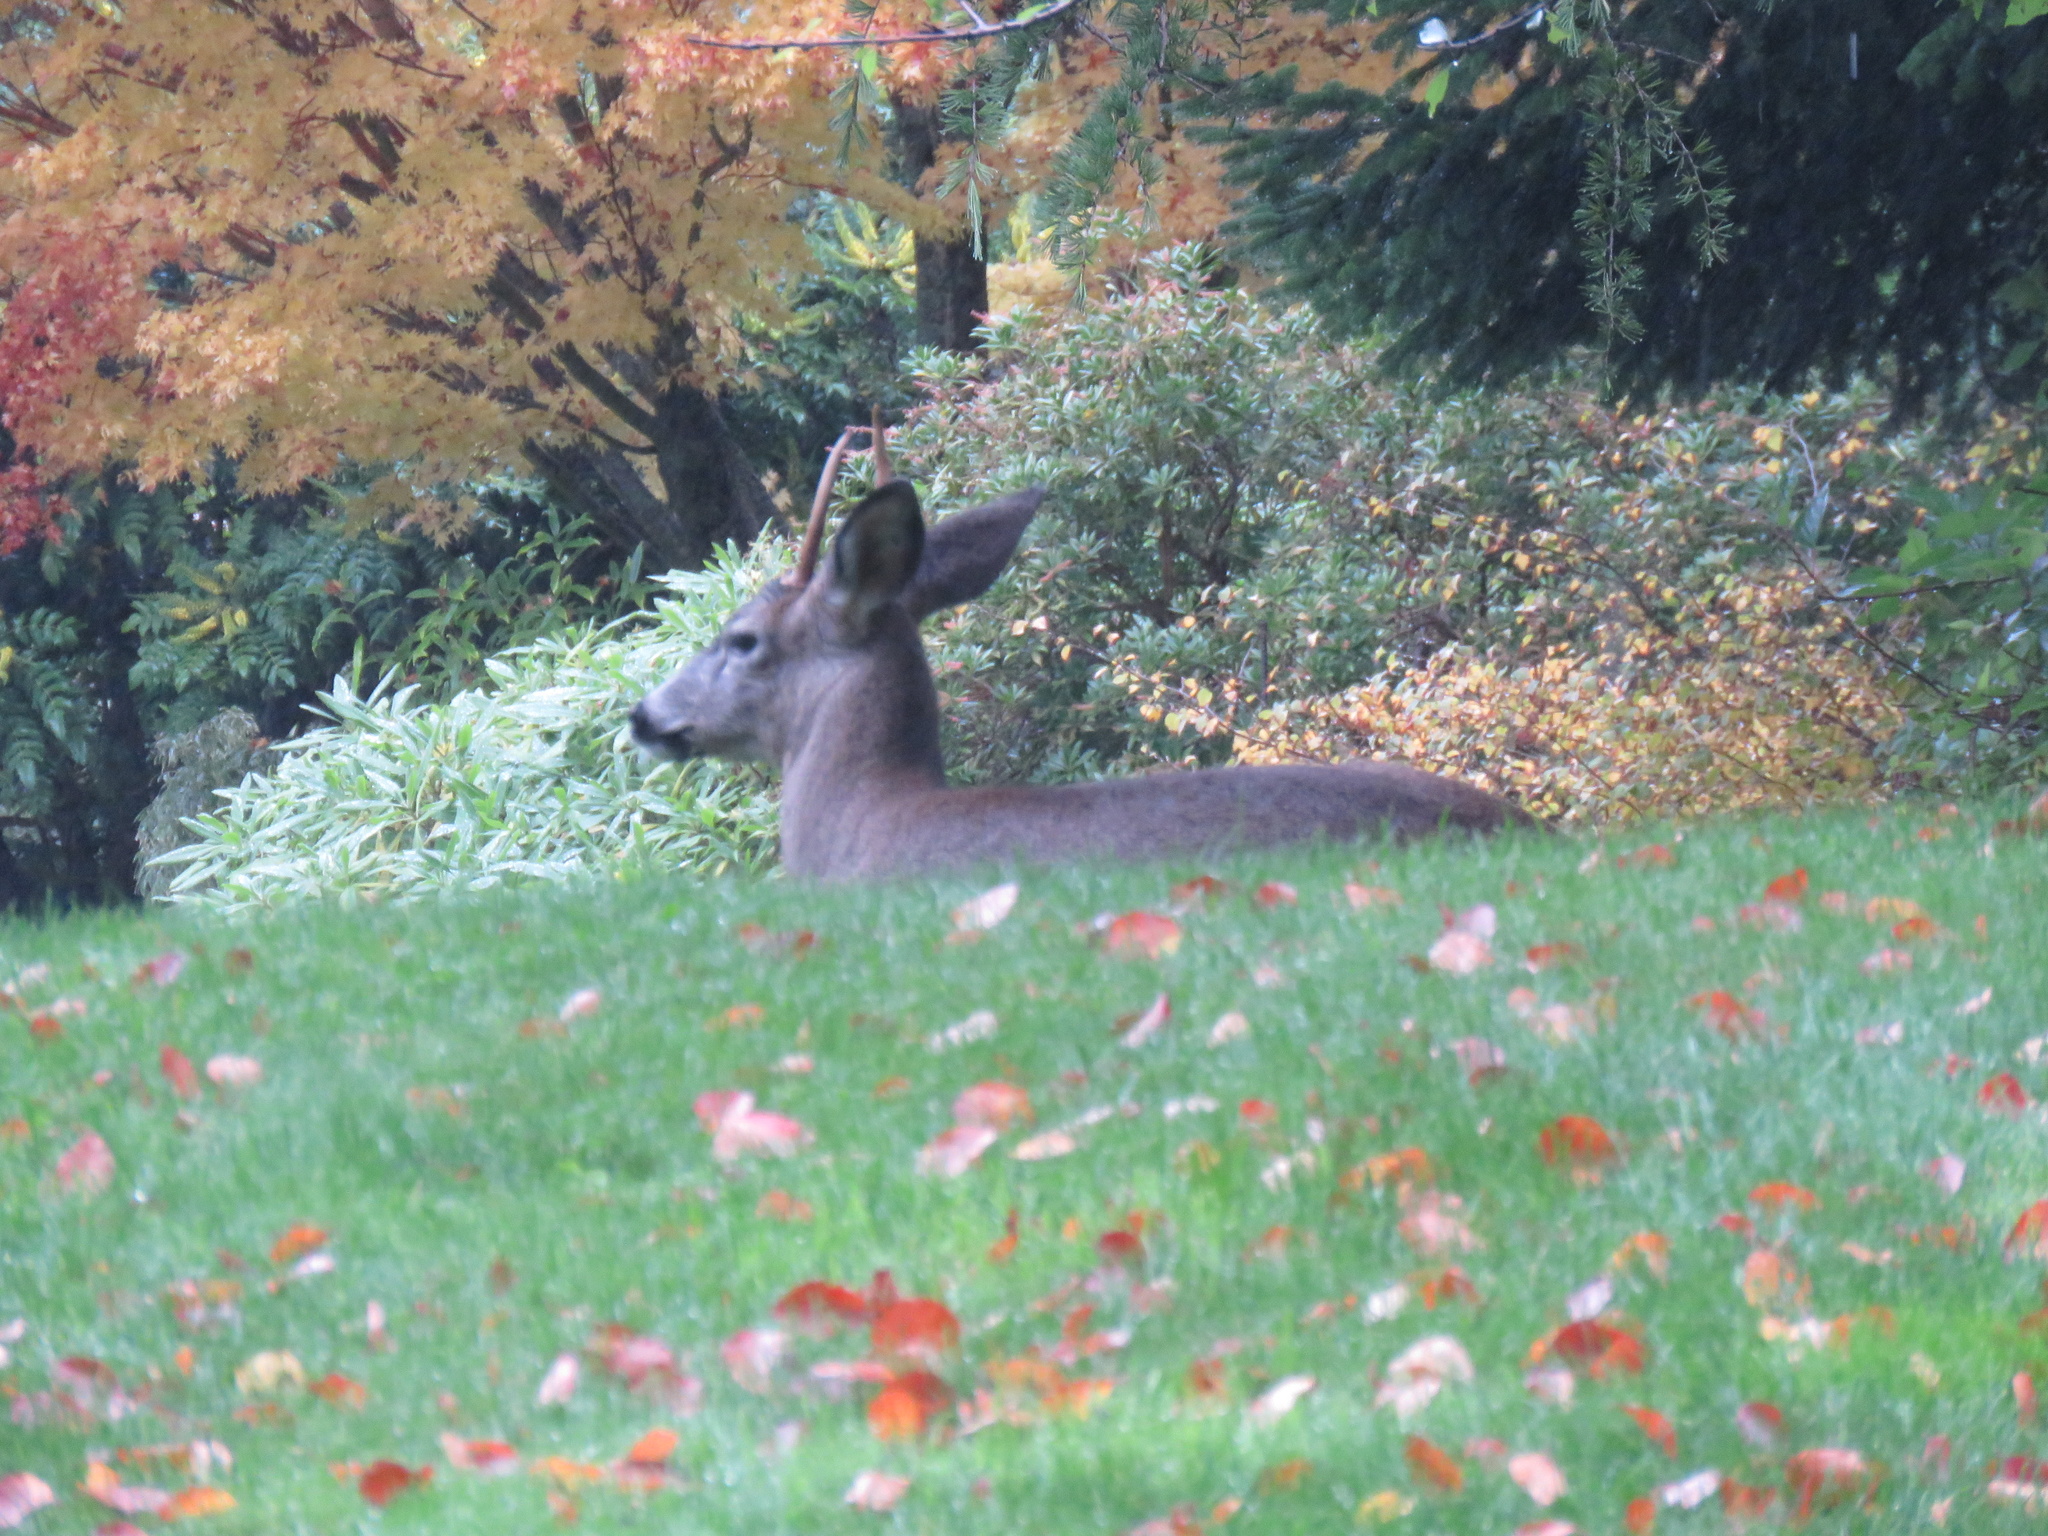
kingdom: Animalia
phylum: Chordata
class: Mammalia
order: Artiodactyla
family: Cervidae
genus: Odocoileus
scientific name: Odocoileus hemionus
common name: Mule deer
